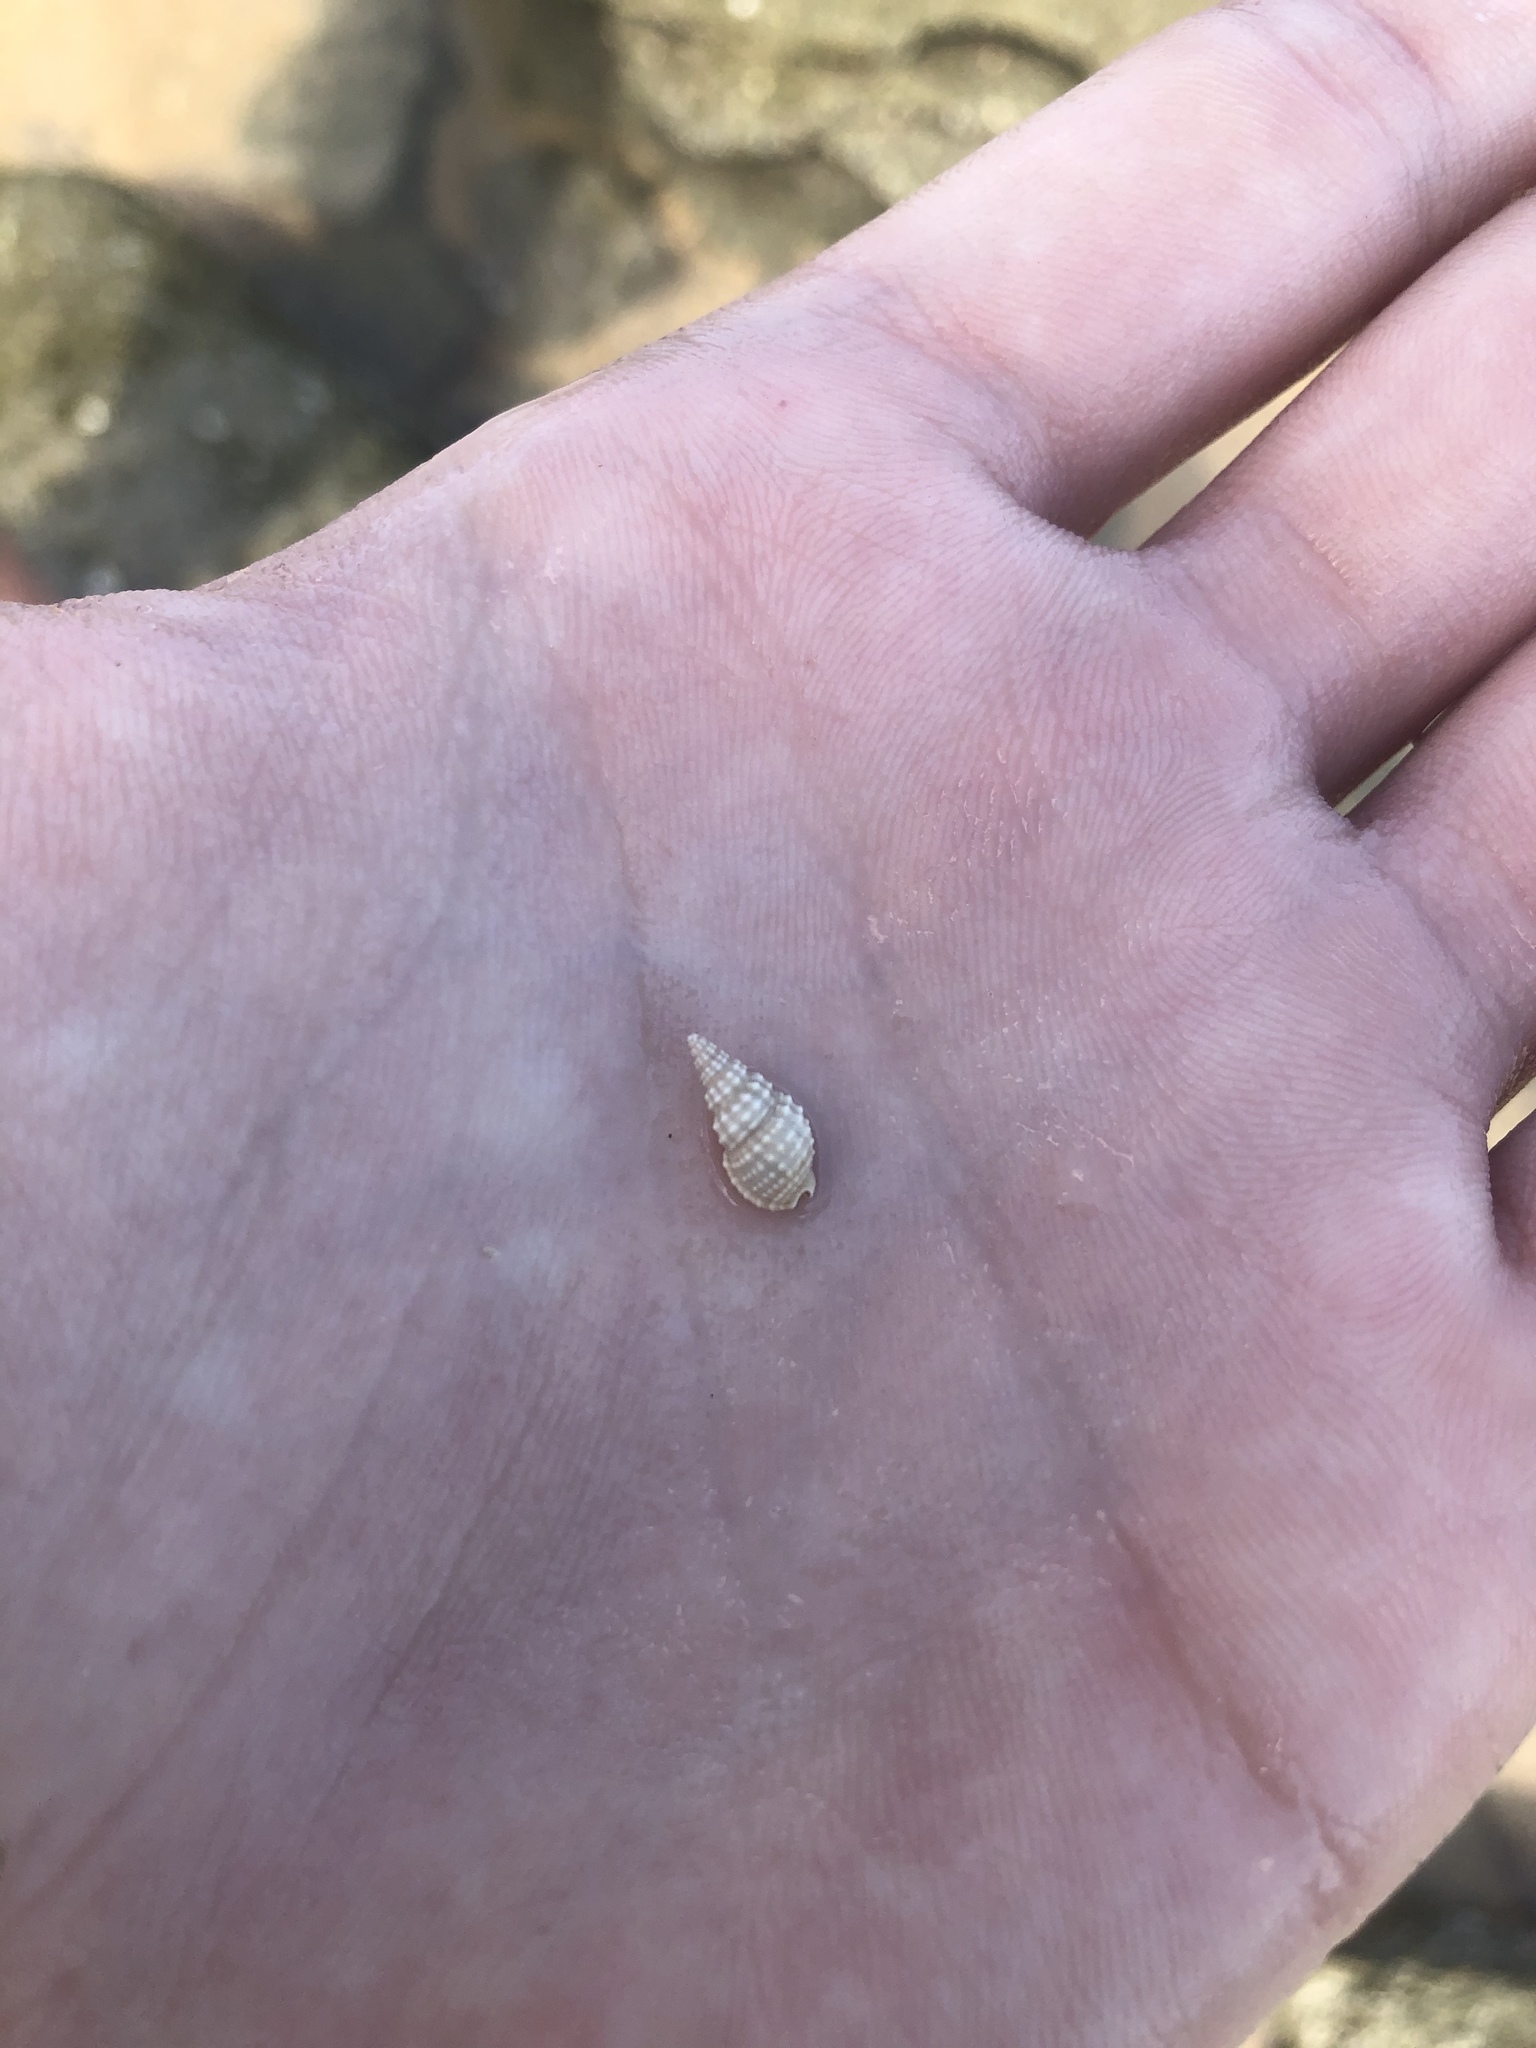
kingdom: Animalia
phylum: Mollusca
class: Gastropoda
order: Neogastropoda
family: Nassariidae
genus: Nassarius
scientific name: Nassarius acutus
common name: Sharp nassa
